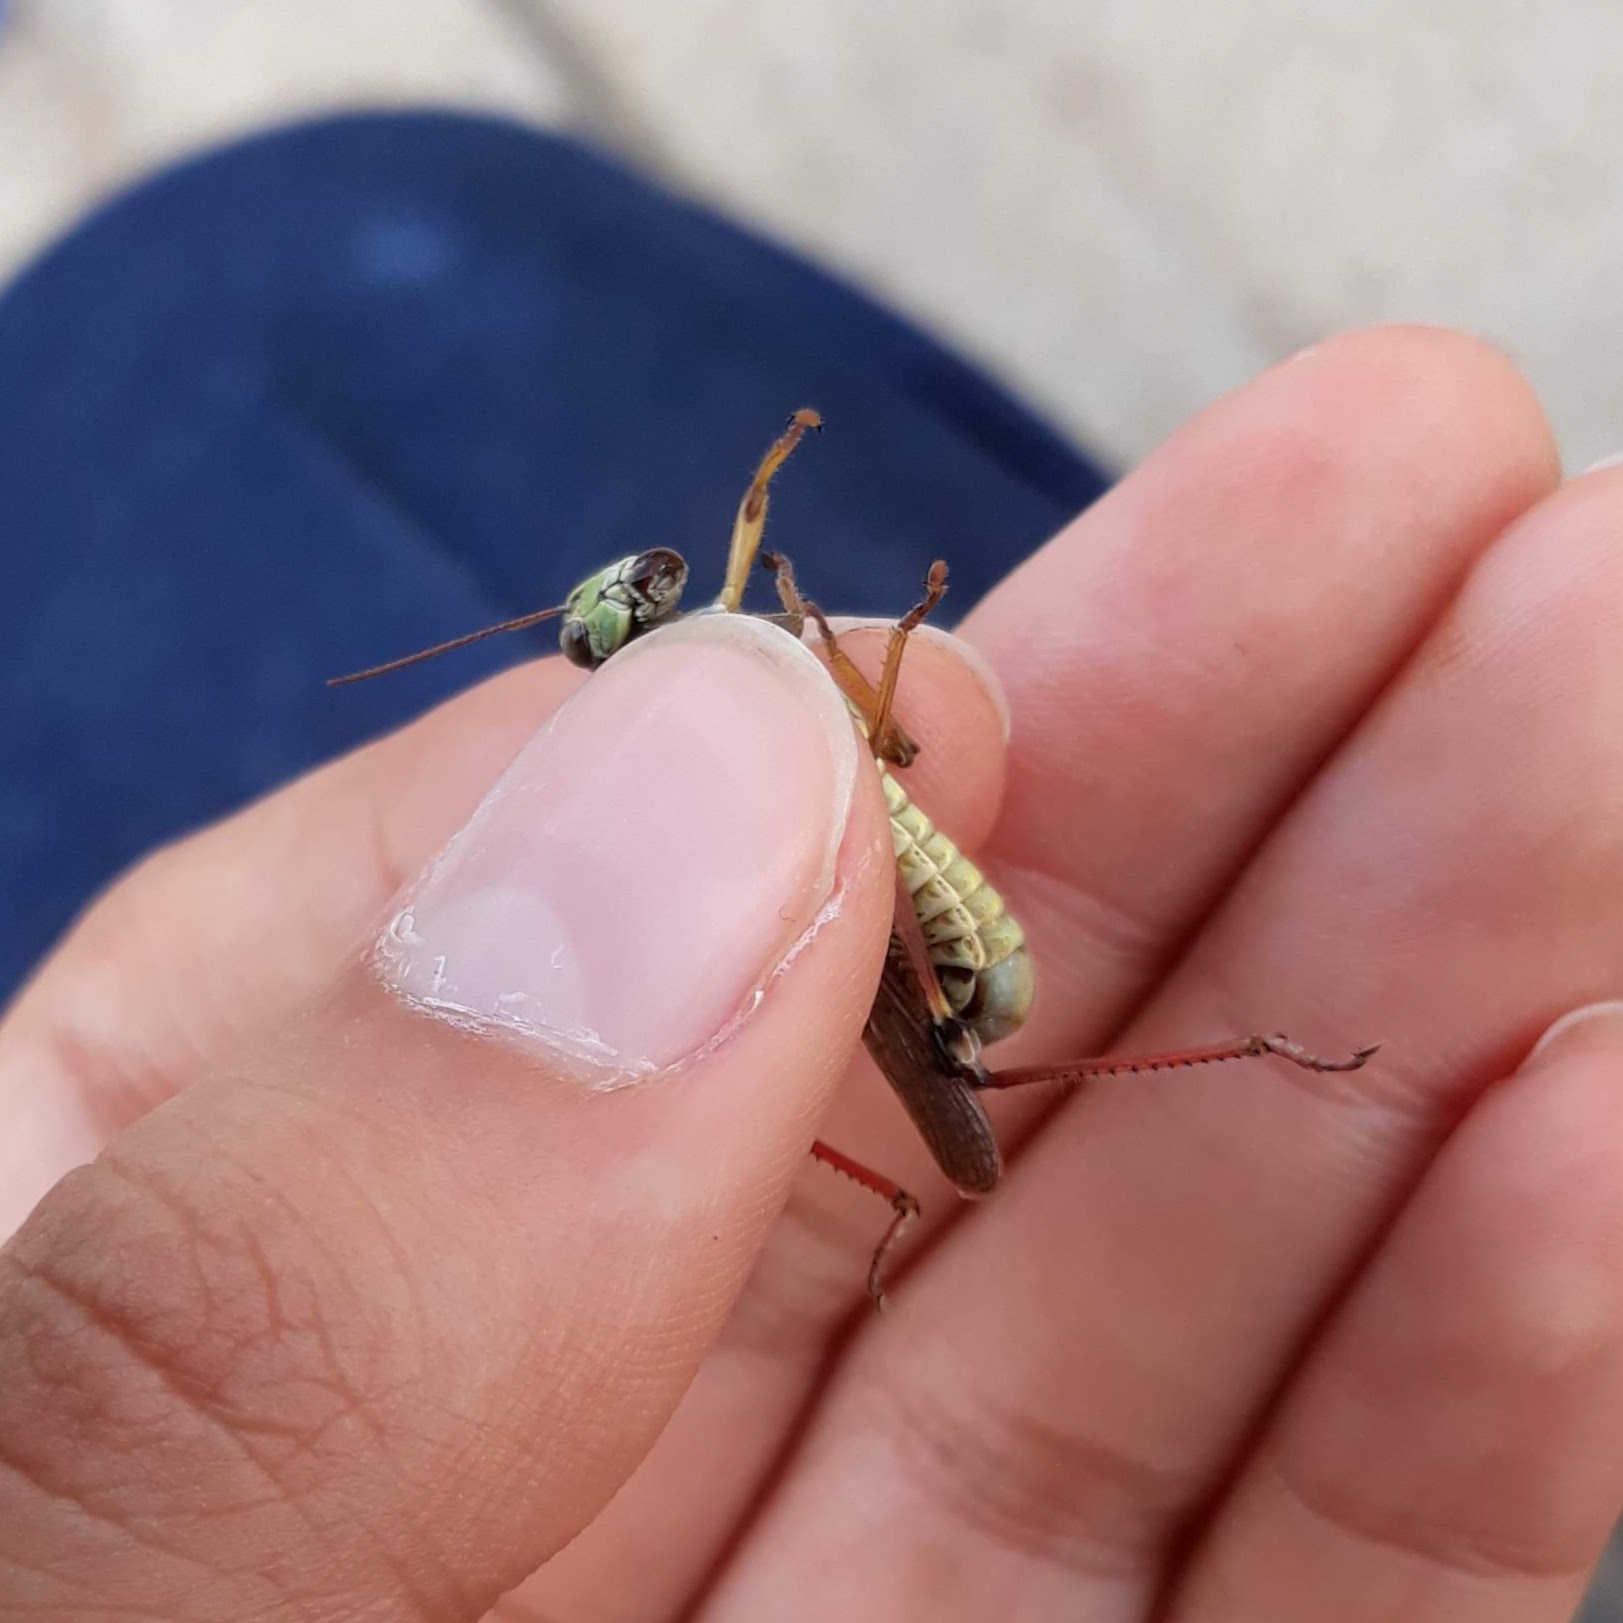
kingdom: Animalia
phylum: Arthropoda
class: Insecta
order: Orthoptera
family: Acrididae
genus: Melanoplus
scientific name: Melanoplus femurrubrum
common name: Red-legged grasshopper
